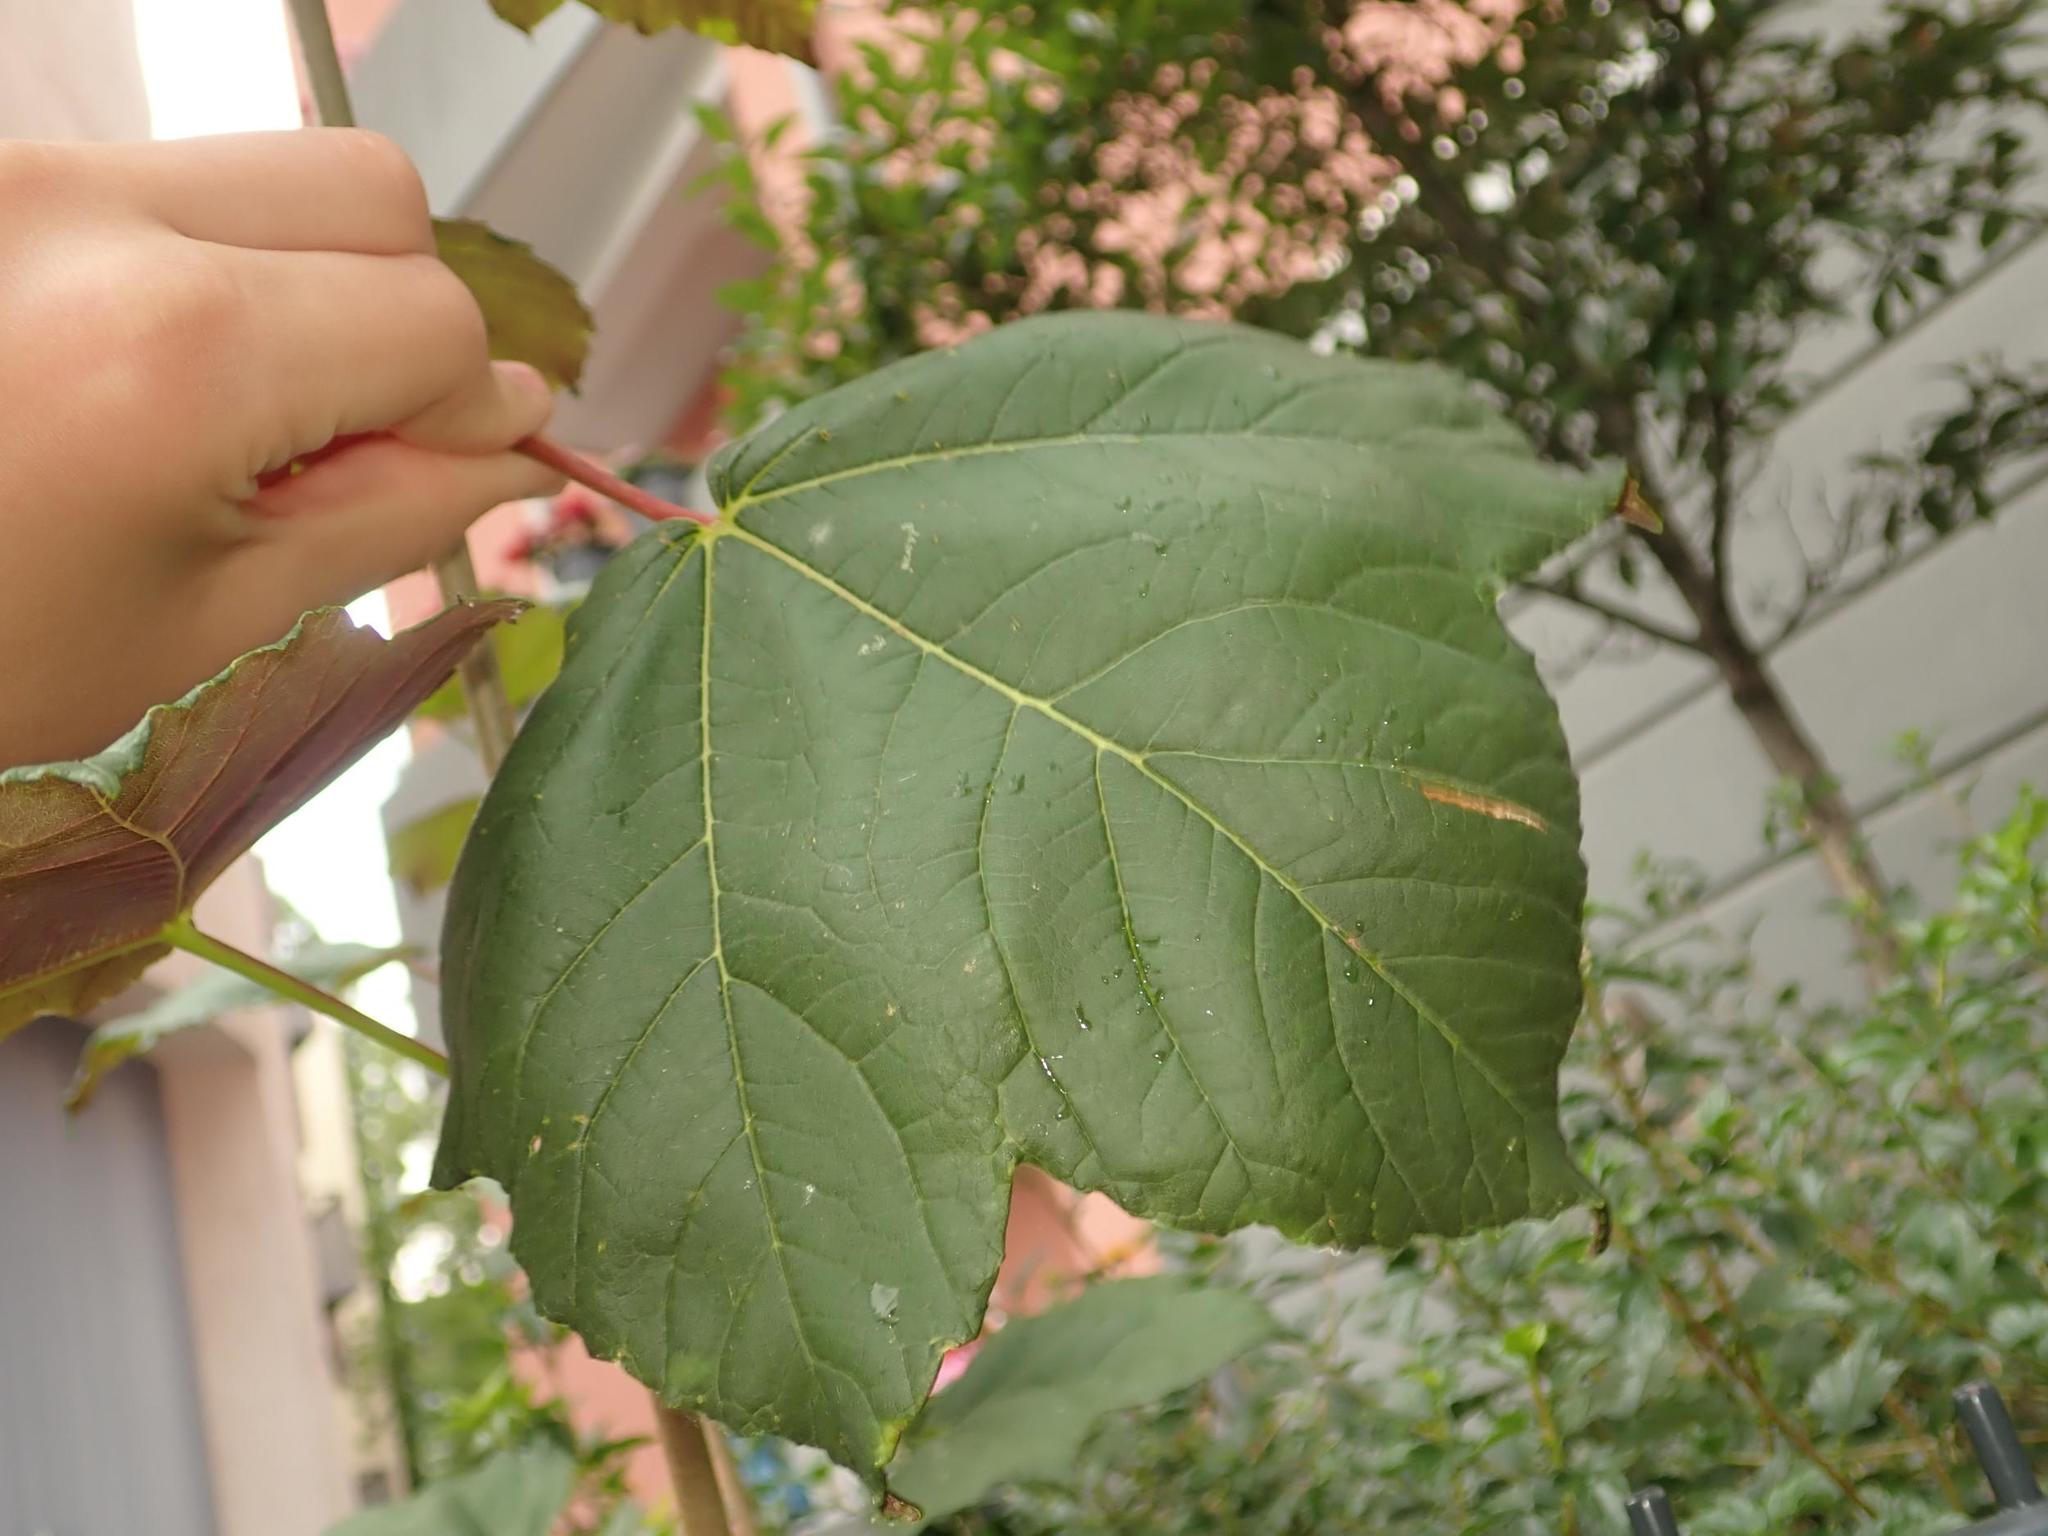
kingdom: Plantae
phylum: Tracheophyta
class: Magnoliopsida
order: Sapindales
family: Sapindaceae
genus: Acer
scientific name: Acer pseudoplatanus
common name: Sycamore
